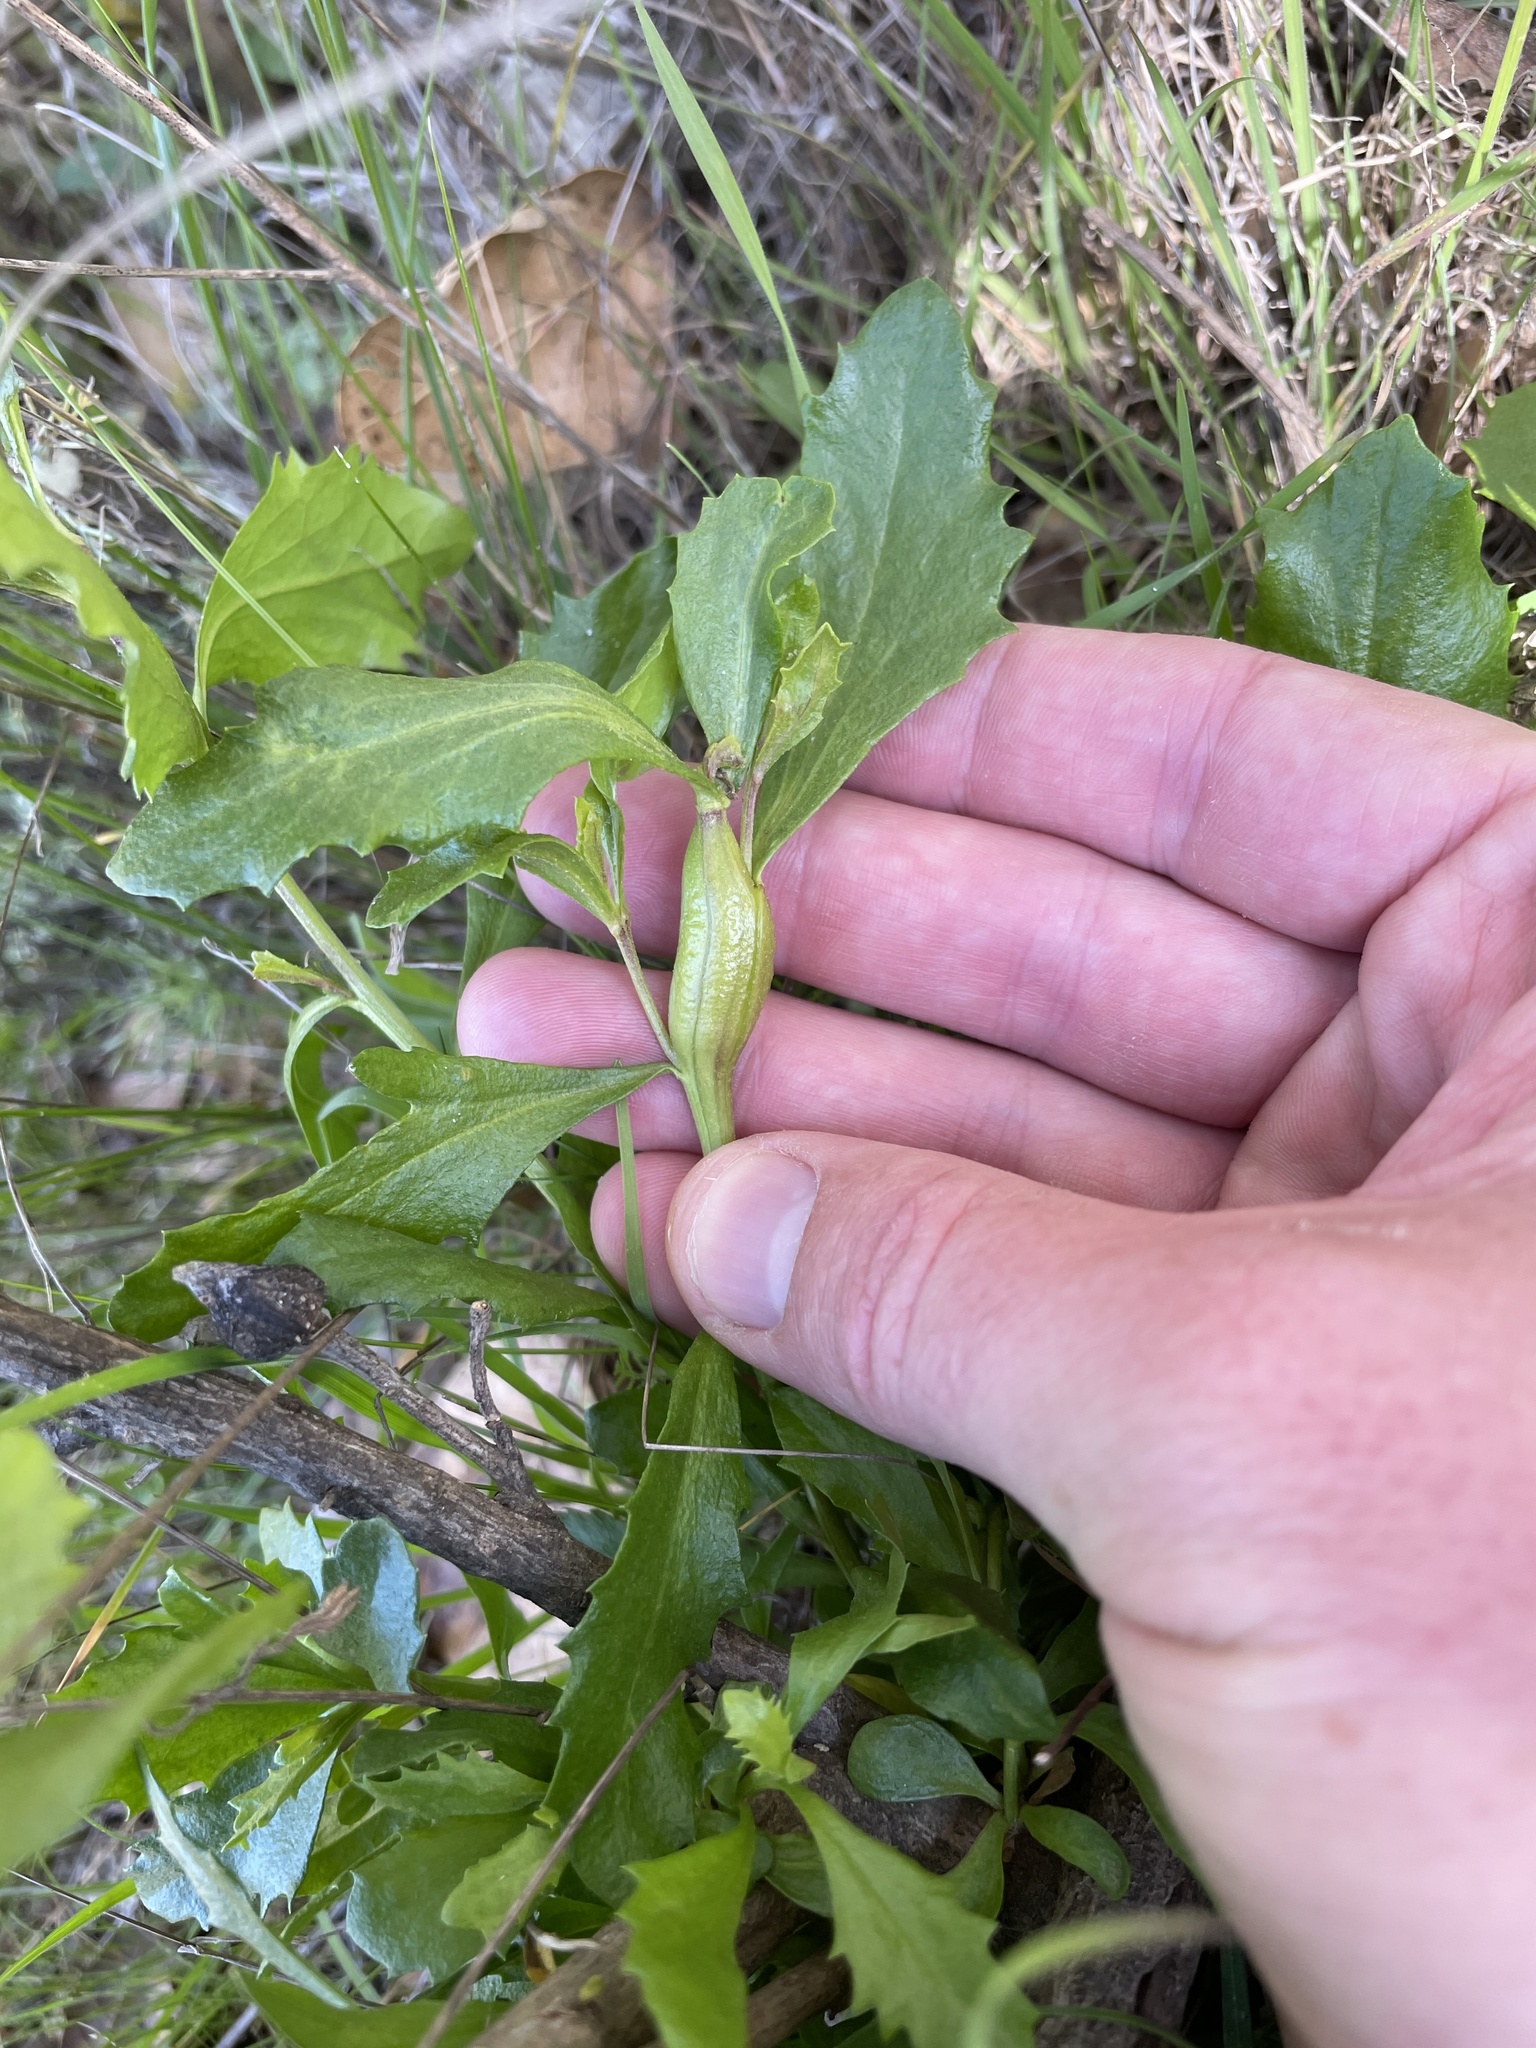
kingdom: Animalia
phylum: Arthropoda
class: Insecta
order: Lepidoptera
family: Gelechiidae
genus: Gnorimoschema
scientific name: Gnorimoschema baccharisella
